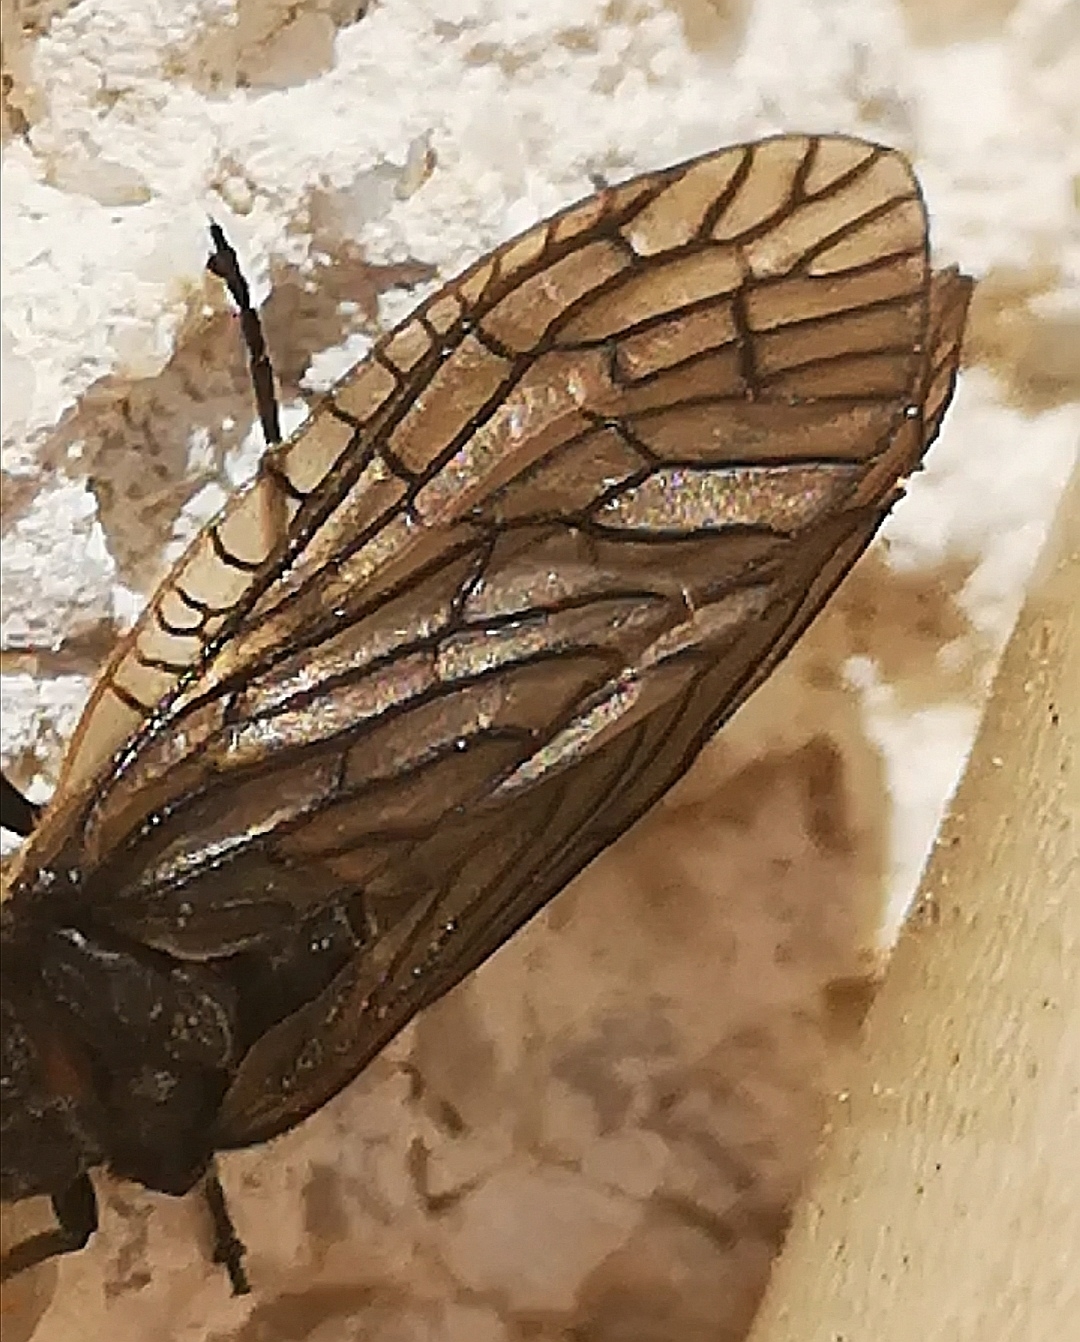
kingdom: Animalia
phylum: Arthropoda
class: Insecta
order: Megaloptera
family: Sialidae
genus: Sialis
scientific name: Sialis
